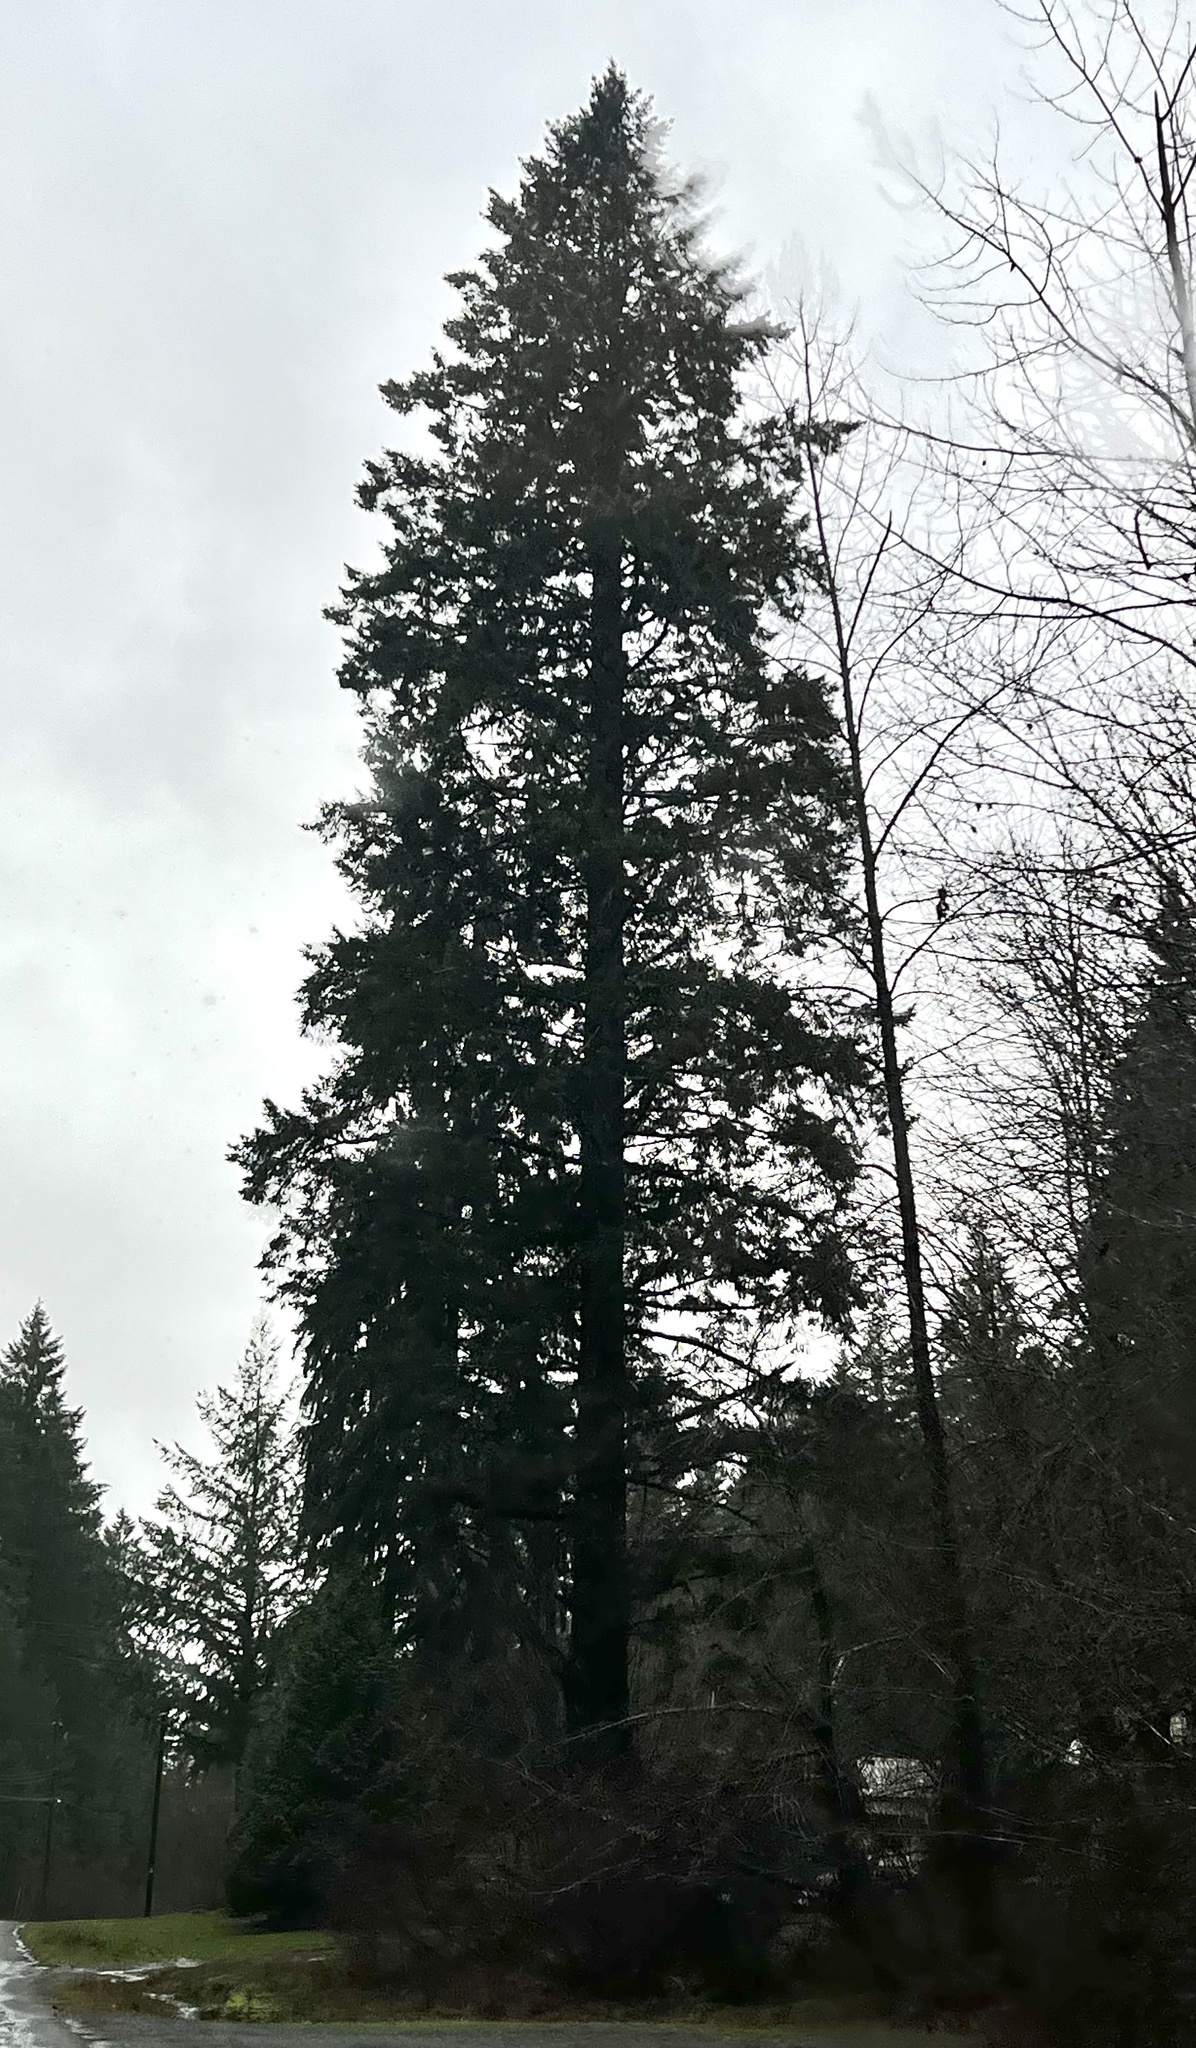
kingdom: Plantae
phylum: Tracheophyta
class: Pinopsida
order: Pinales
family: Pinaceae
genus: Pseudotsuga
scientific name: Pseudotsuga menziesii
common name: Douglas fir
